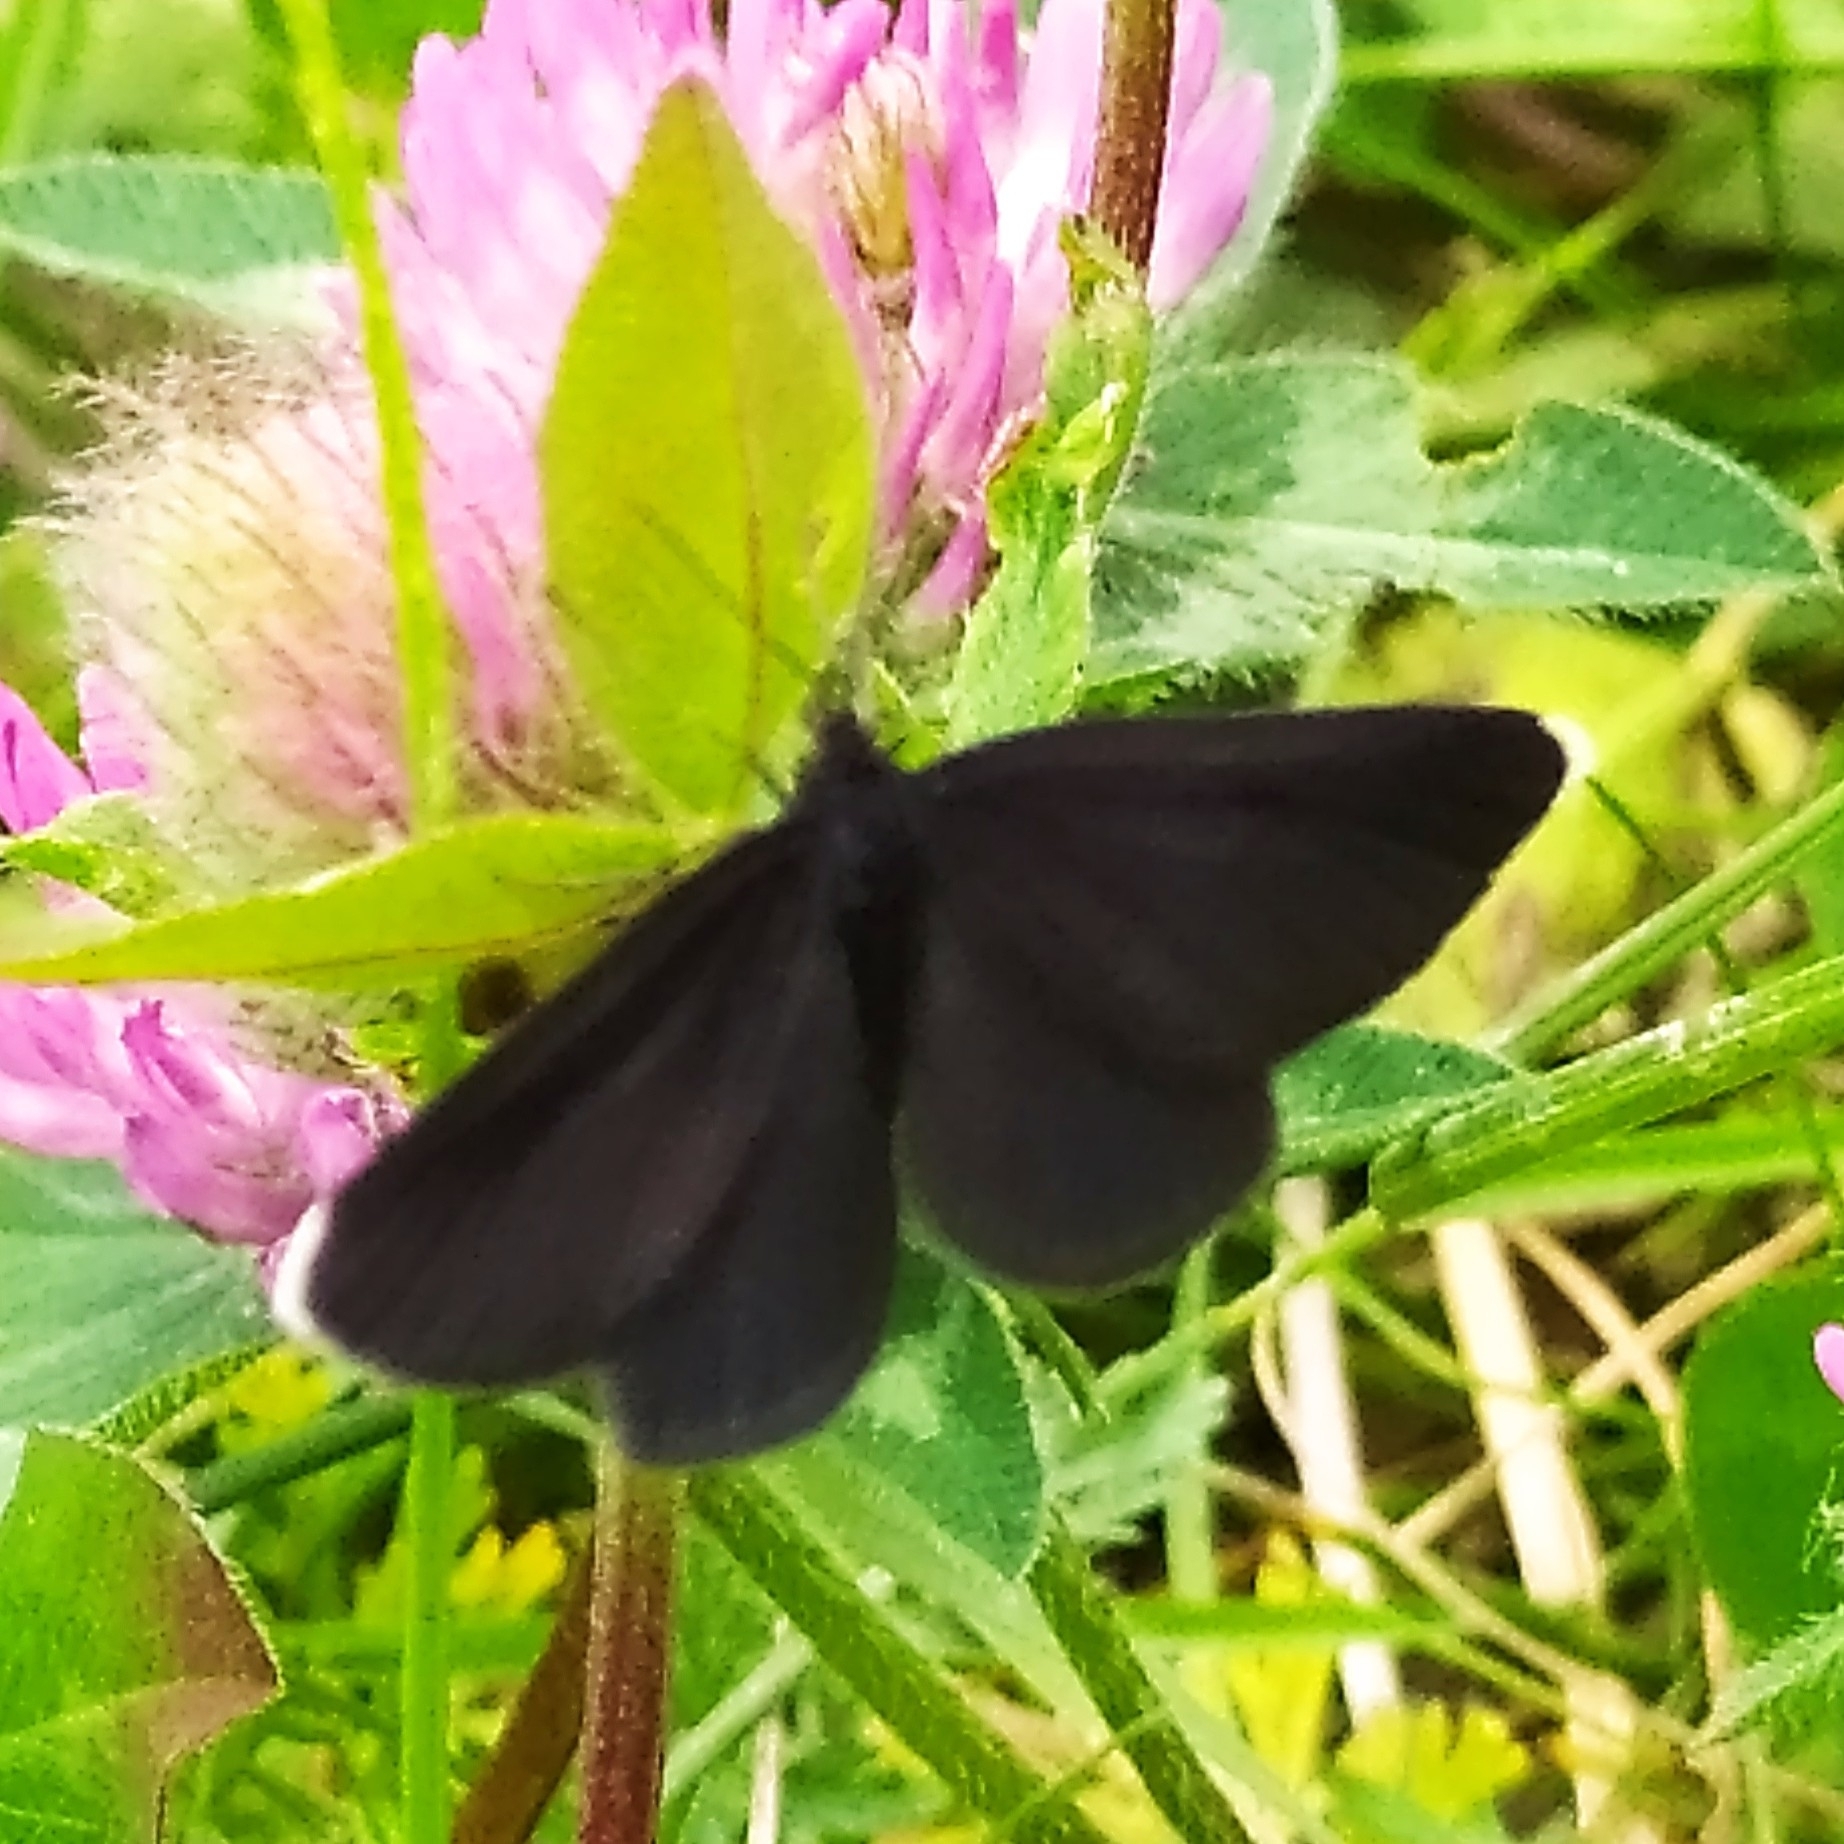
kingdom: Animalia
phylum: Arthropoda
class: Insecta
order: Lepidoptera
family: Geometridae
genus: Odezia
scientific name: Odezia atrata
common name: Chimney sweeper
